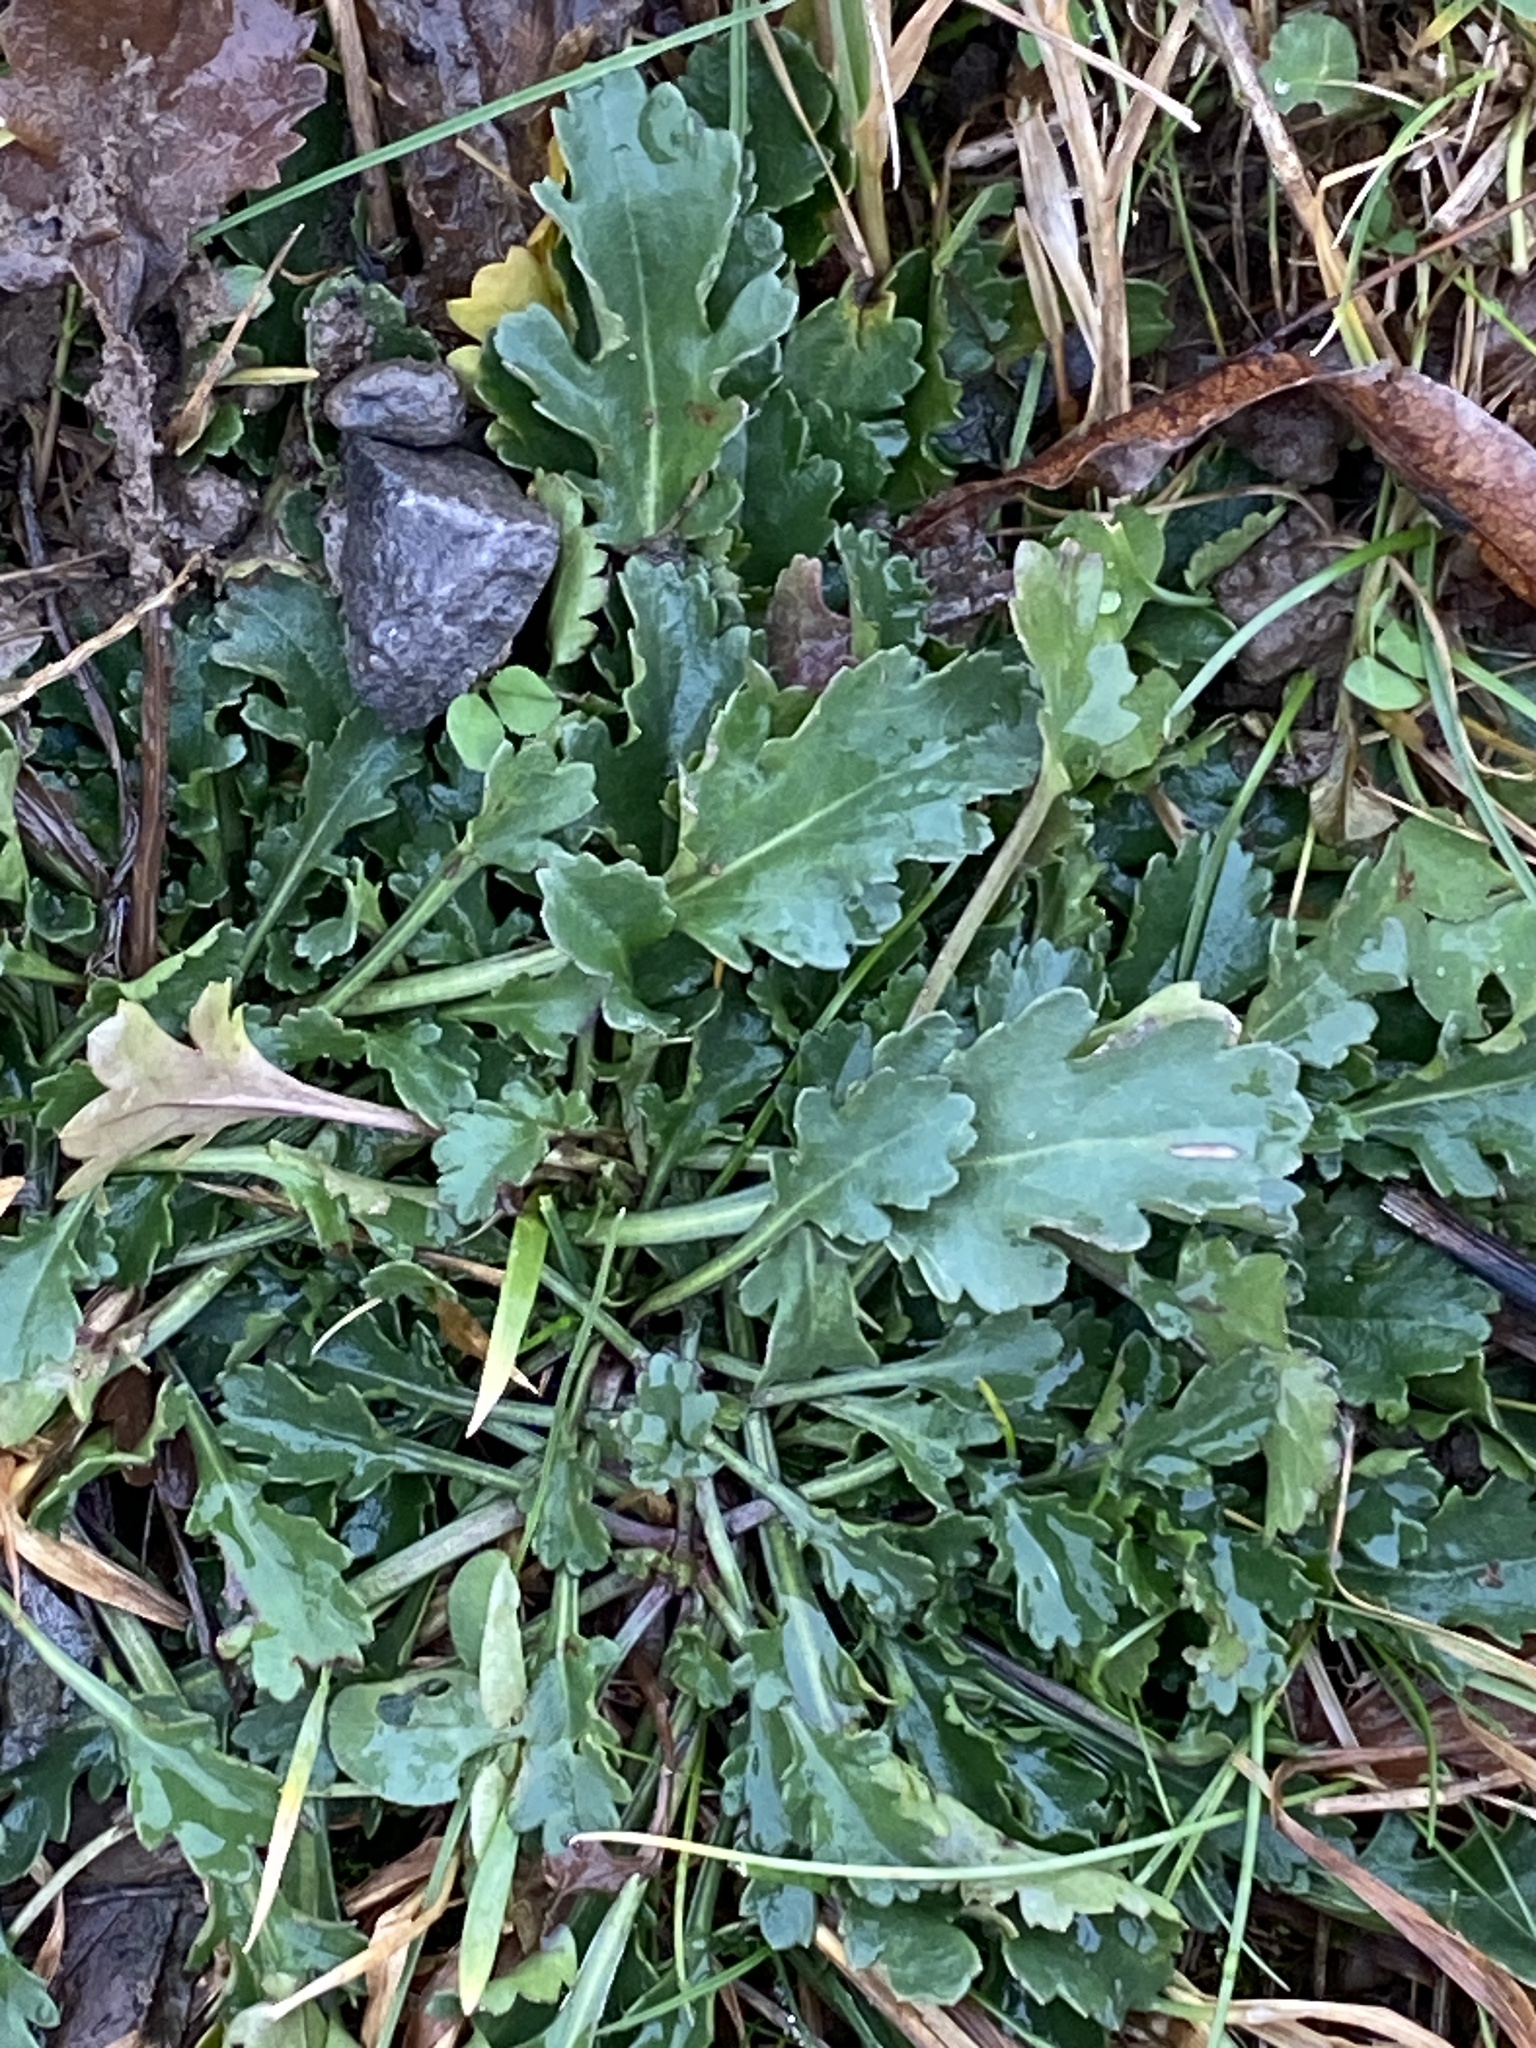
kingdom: Plantae
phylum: Tracheophyta
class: Magnoliopsida
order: Asterales
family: Asteraceae
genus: Leucanthemum
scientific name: Leucanthemum vulgare
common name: Oxeye daisy
